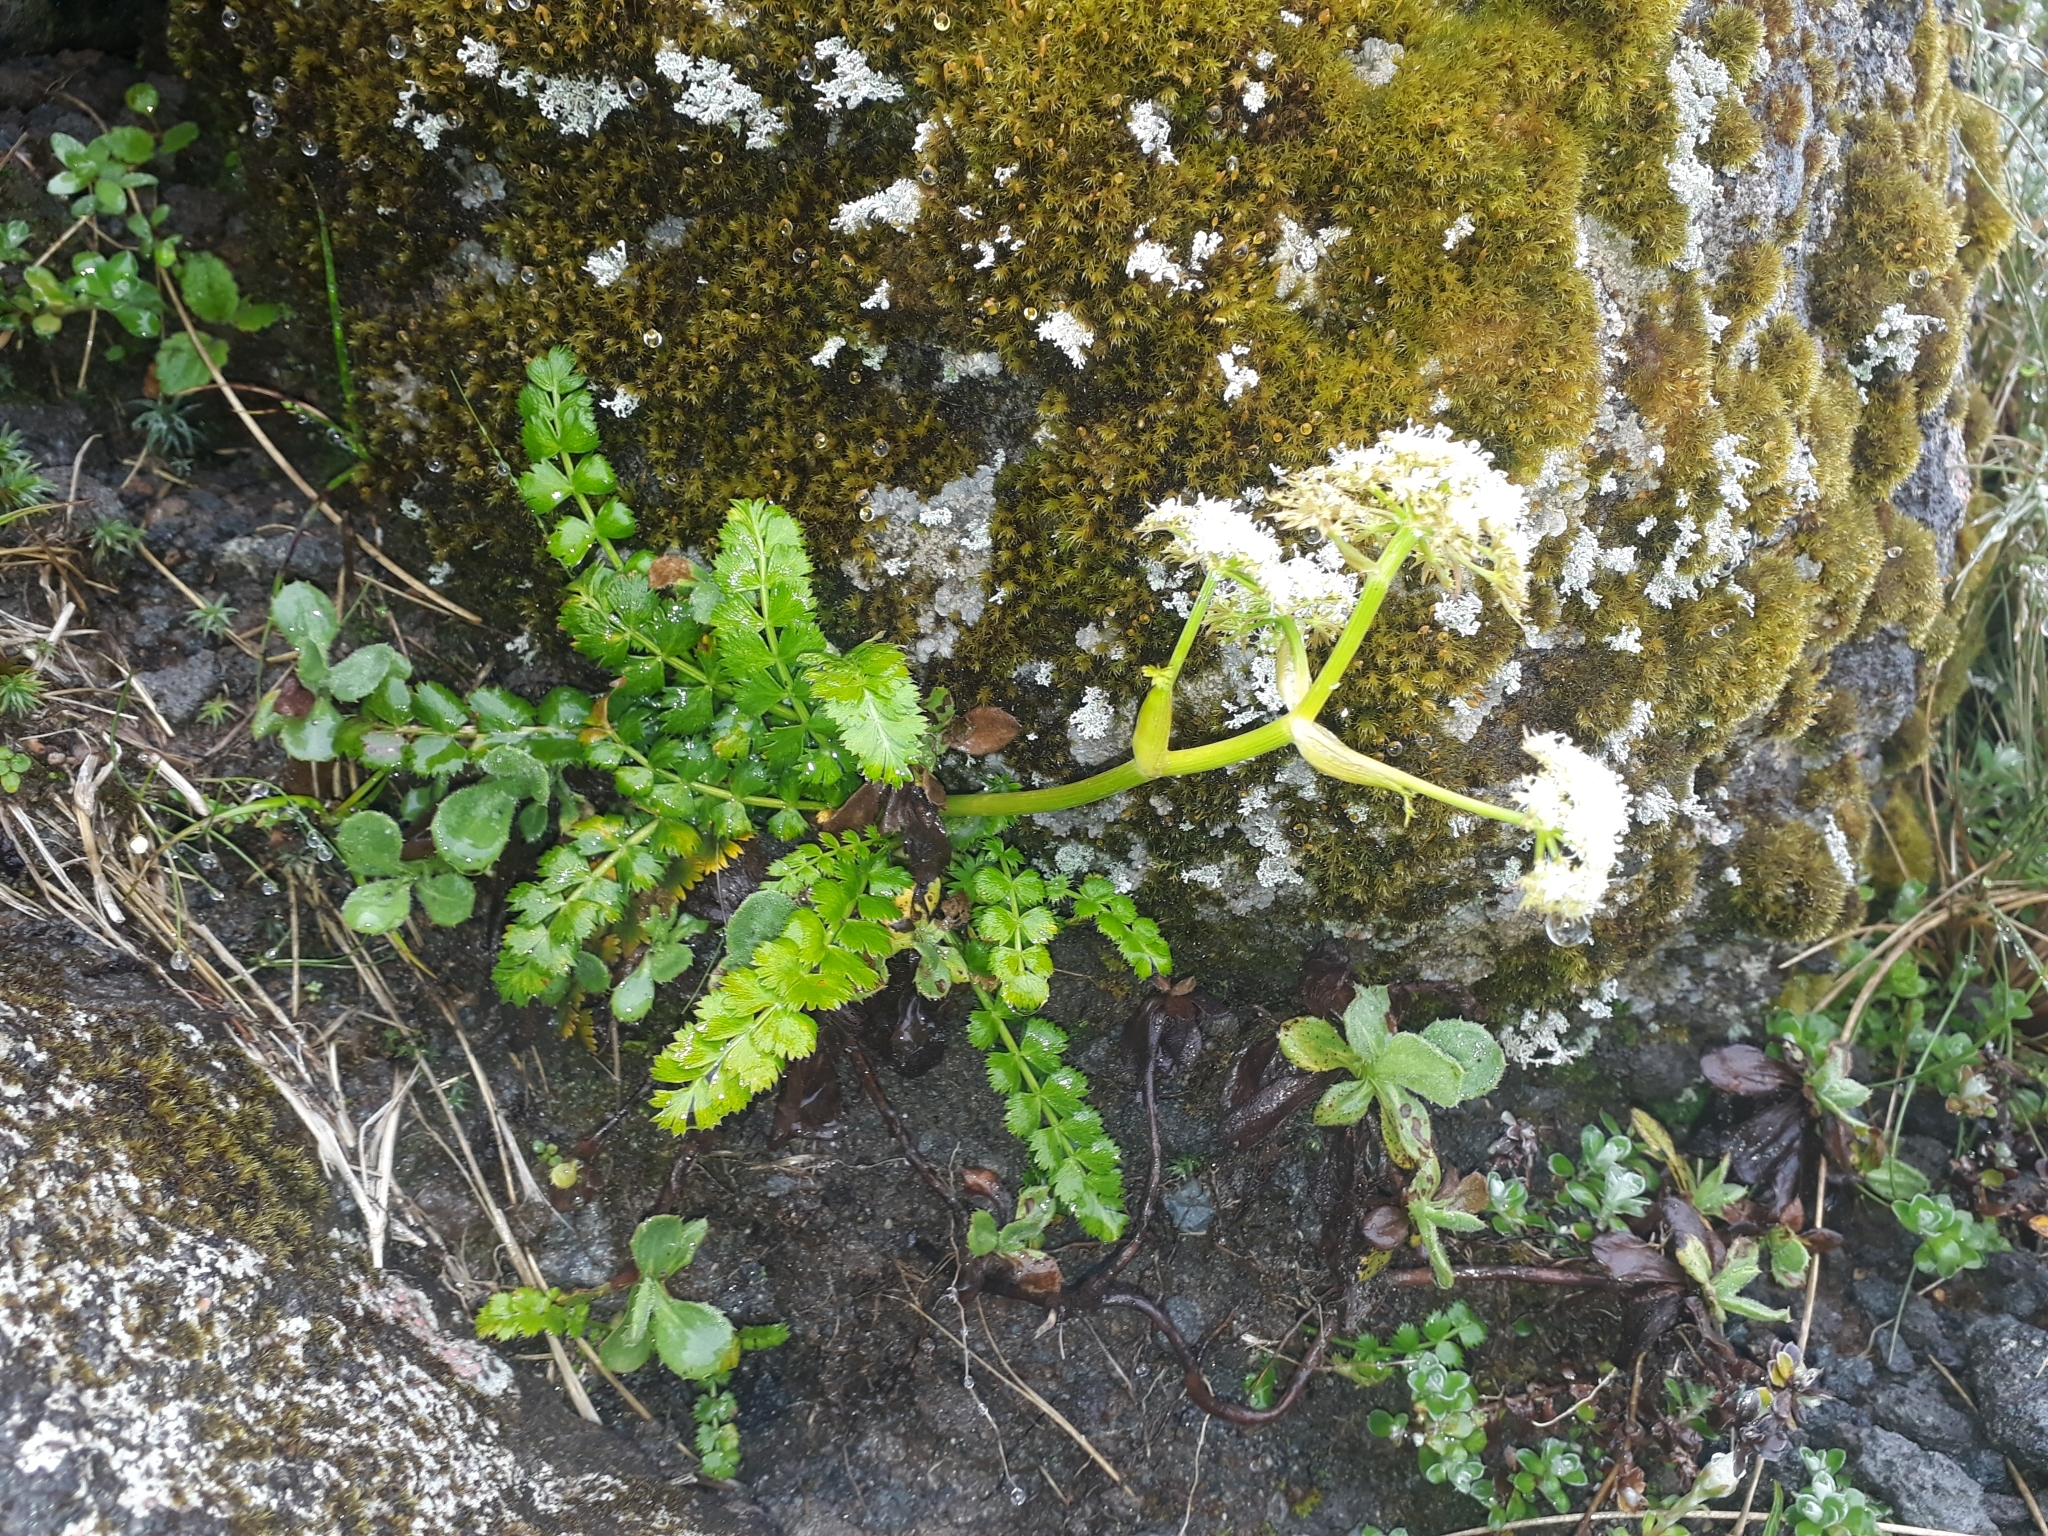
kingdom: Plantae
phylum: Tracheophyta
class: Magnoliopsida
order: Apiales
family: Apiaceae
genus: Anisotome
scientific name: Anisotome aromatica
